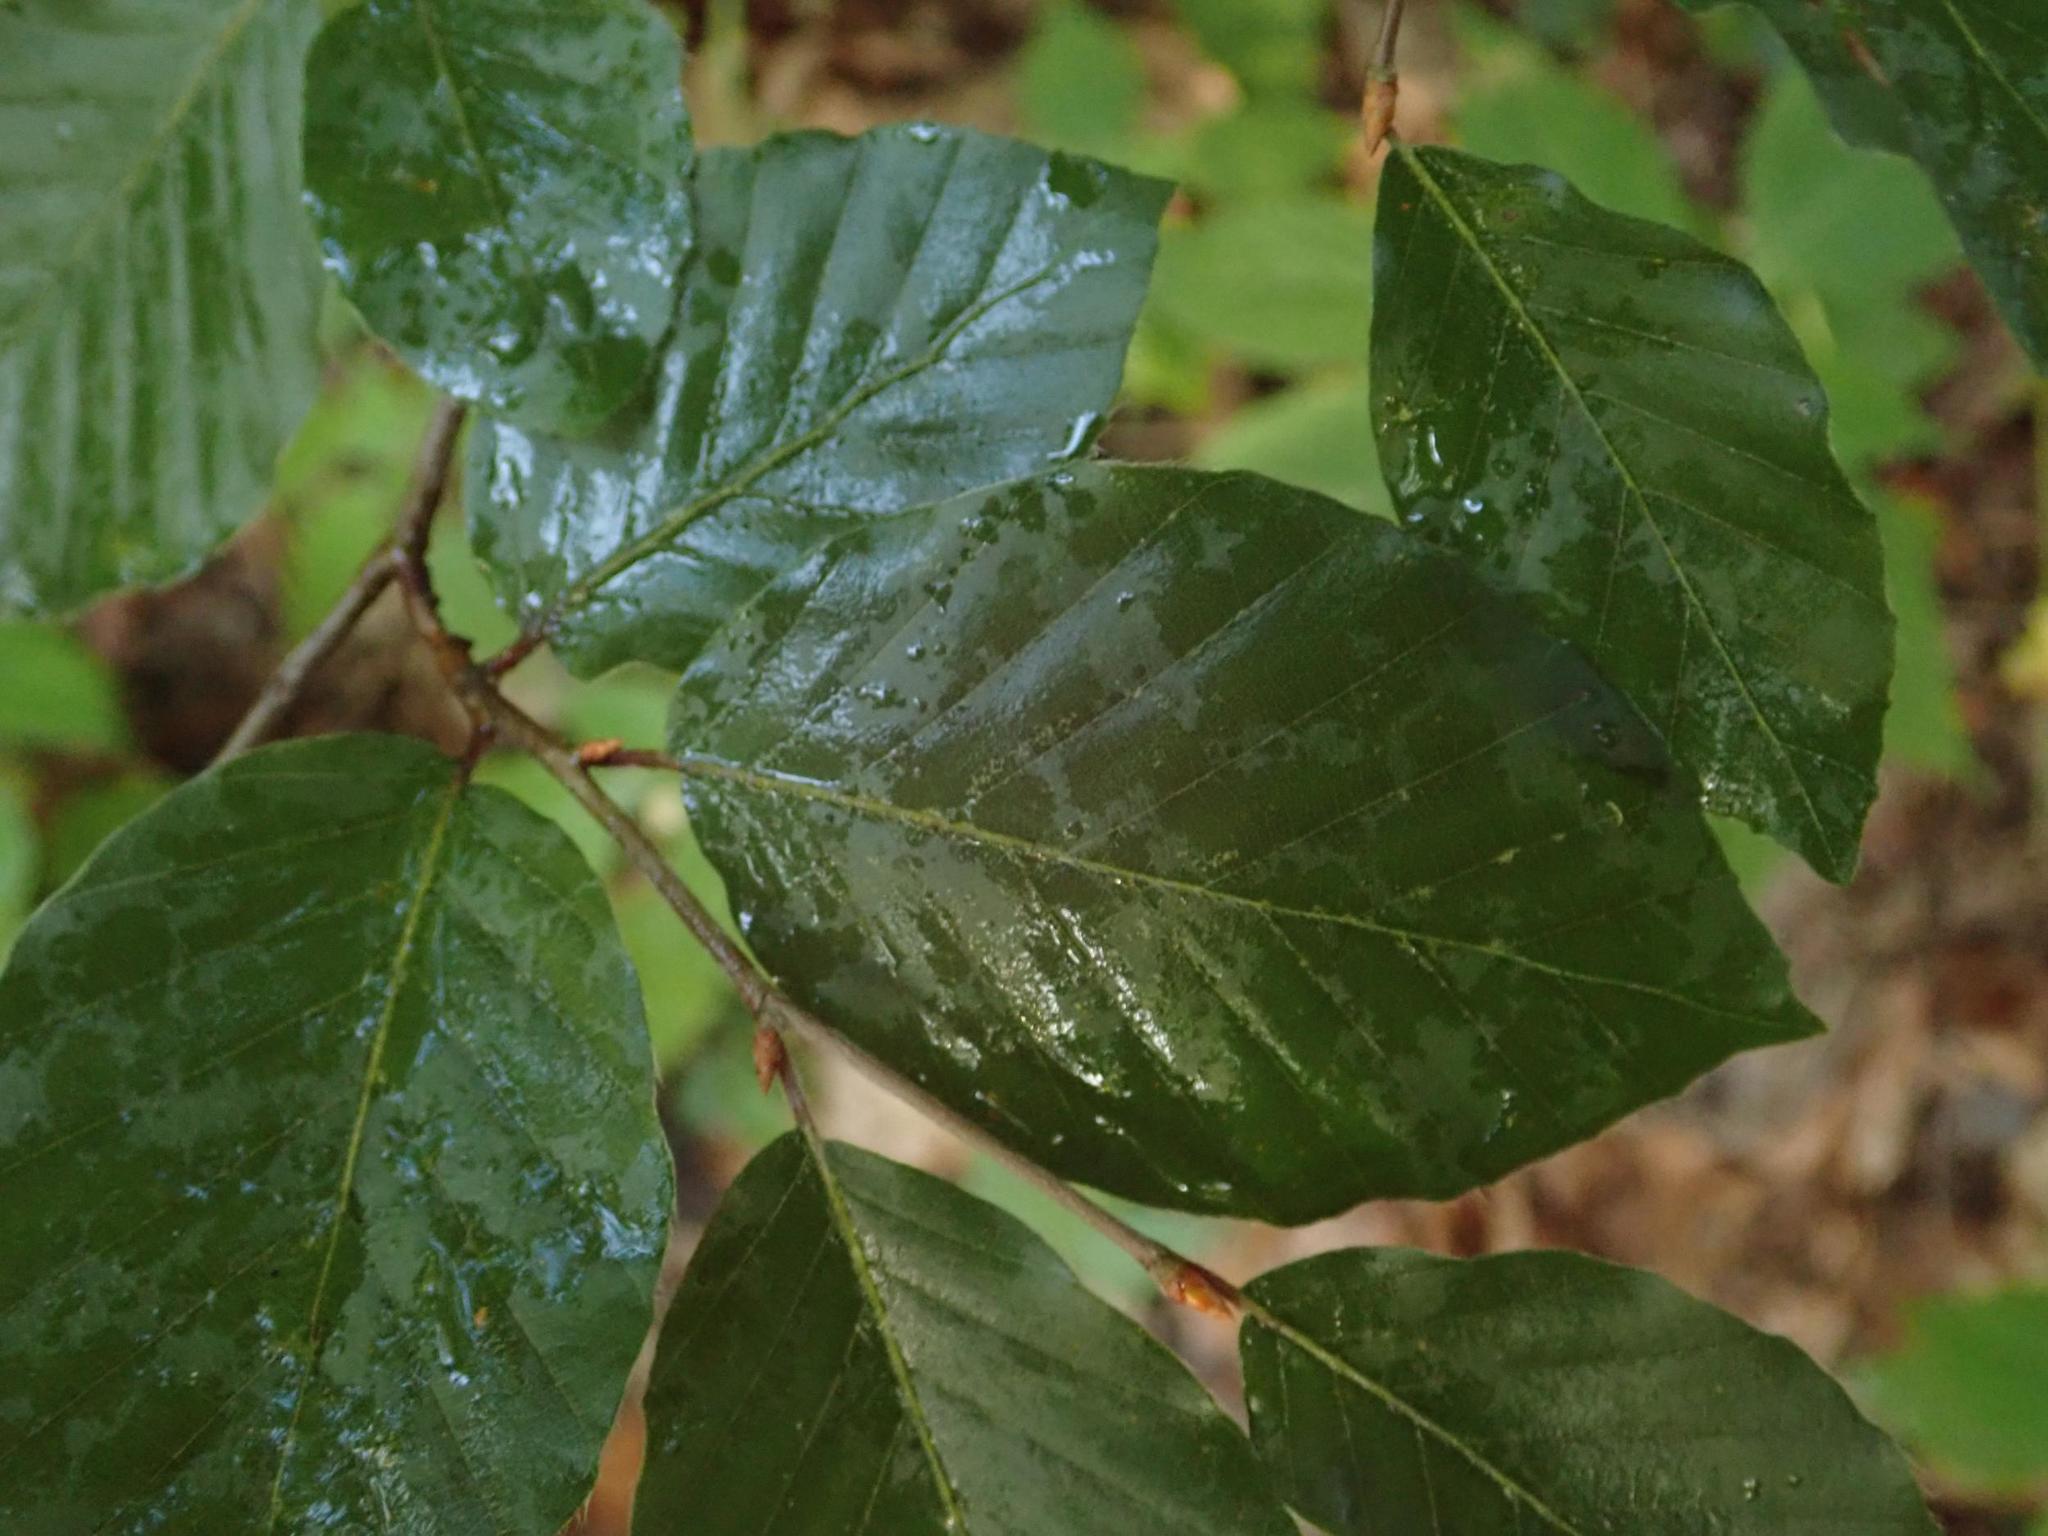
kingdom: Plantae
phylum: Tracheophyta
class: Magnoliopsida
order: Fagales
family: Fagaceae
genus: Fagus
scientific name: Fagus sylvatica
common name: Beech
